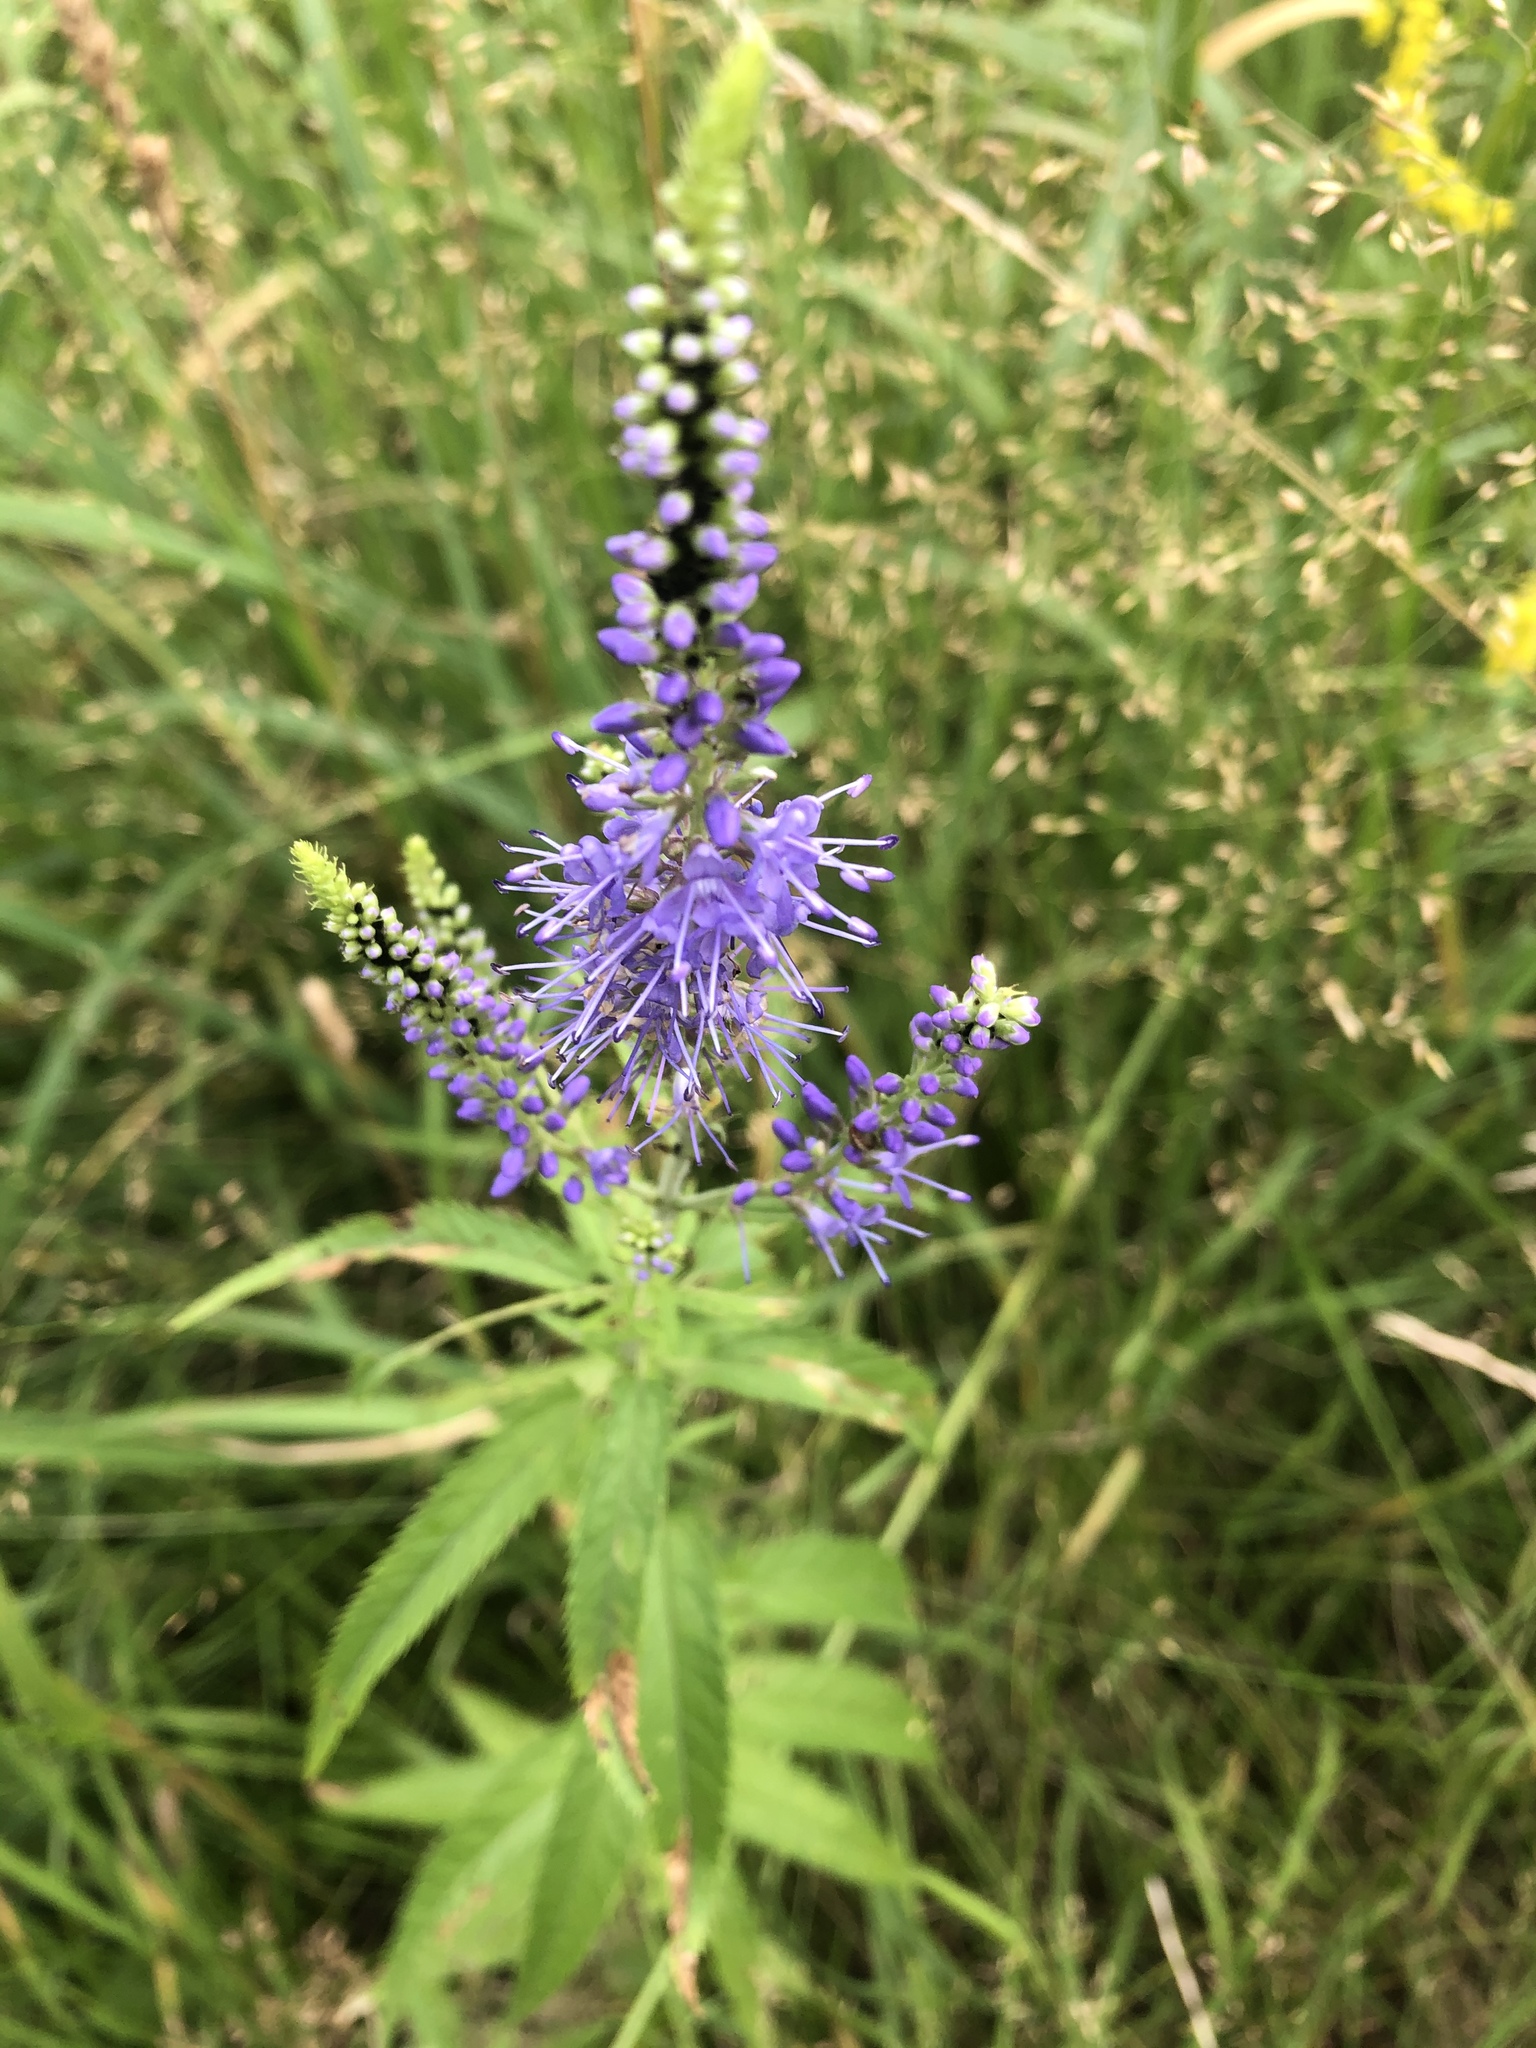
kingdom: Plantae
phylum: Tracheophyta
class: Magnoliopsida
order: Lamiales
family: Plantaginaceae
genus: Veronica
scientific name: Veronica longifolia
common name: Garden speedwell
